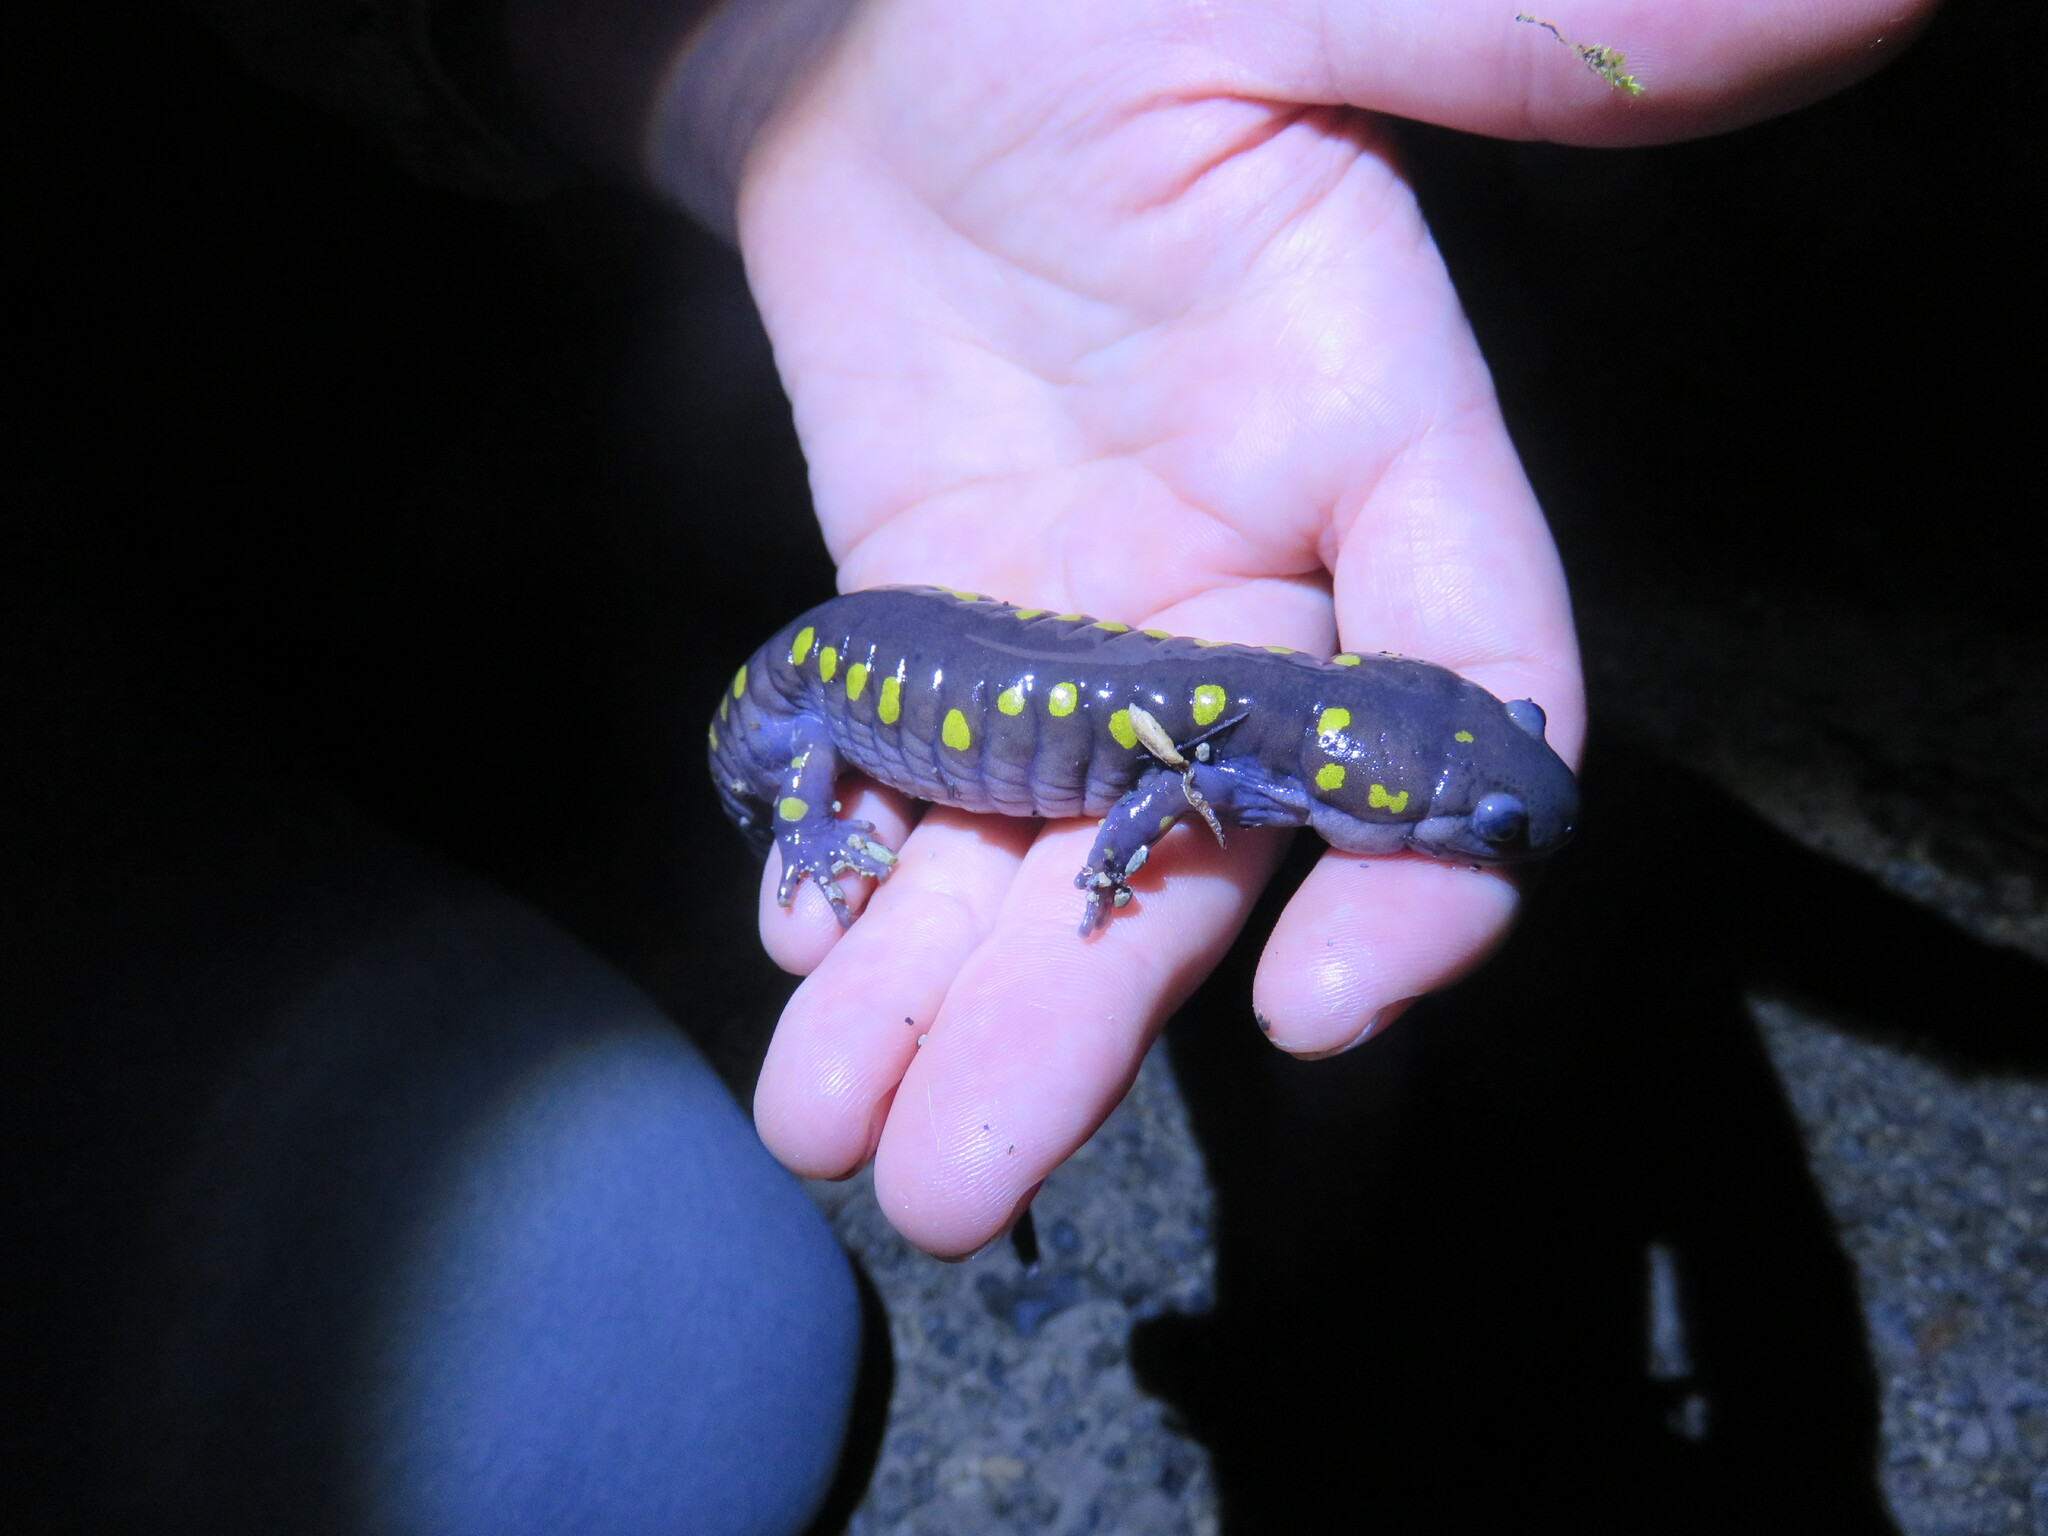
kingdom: Animalia
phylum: Chordata
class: Amphibia
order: Caudata
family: Ambystomatidae
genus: Ambystoma
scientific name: Ambystoma maculatum
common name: Spotted salamander
